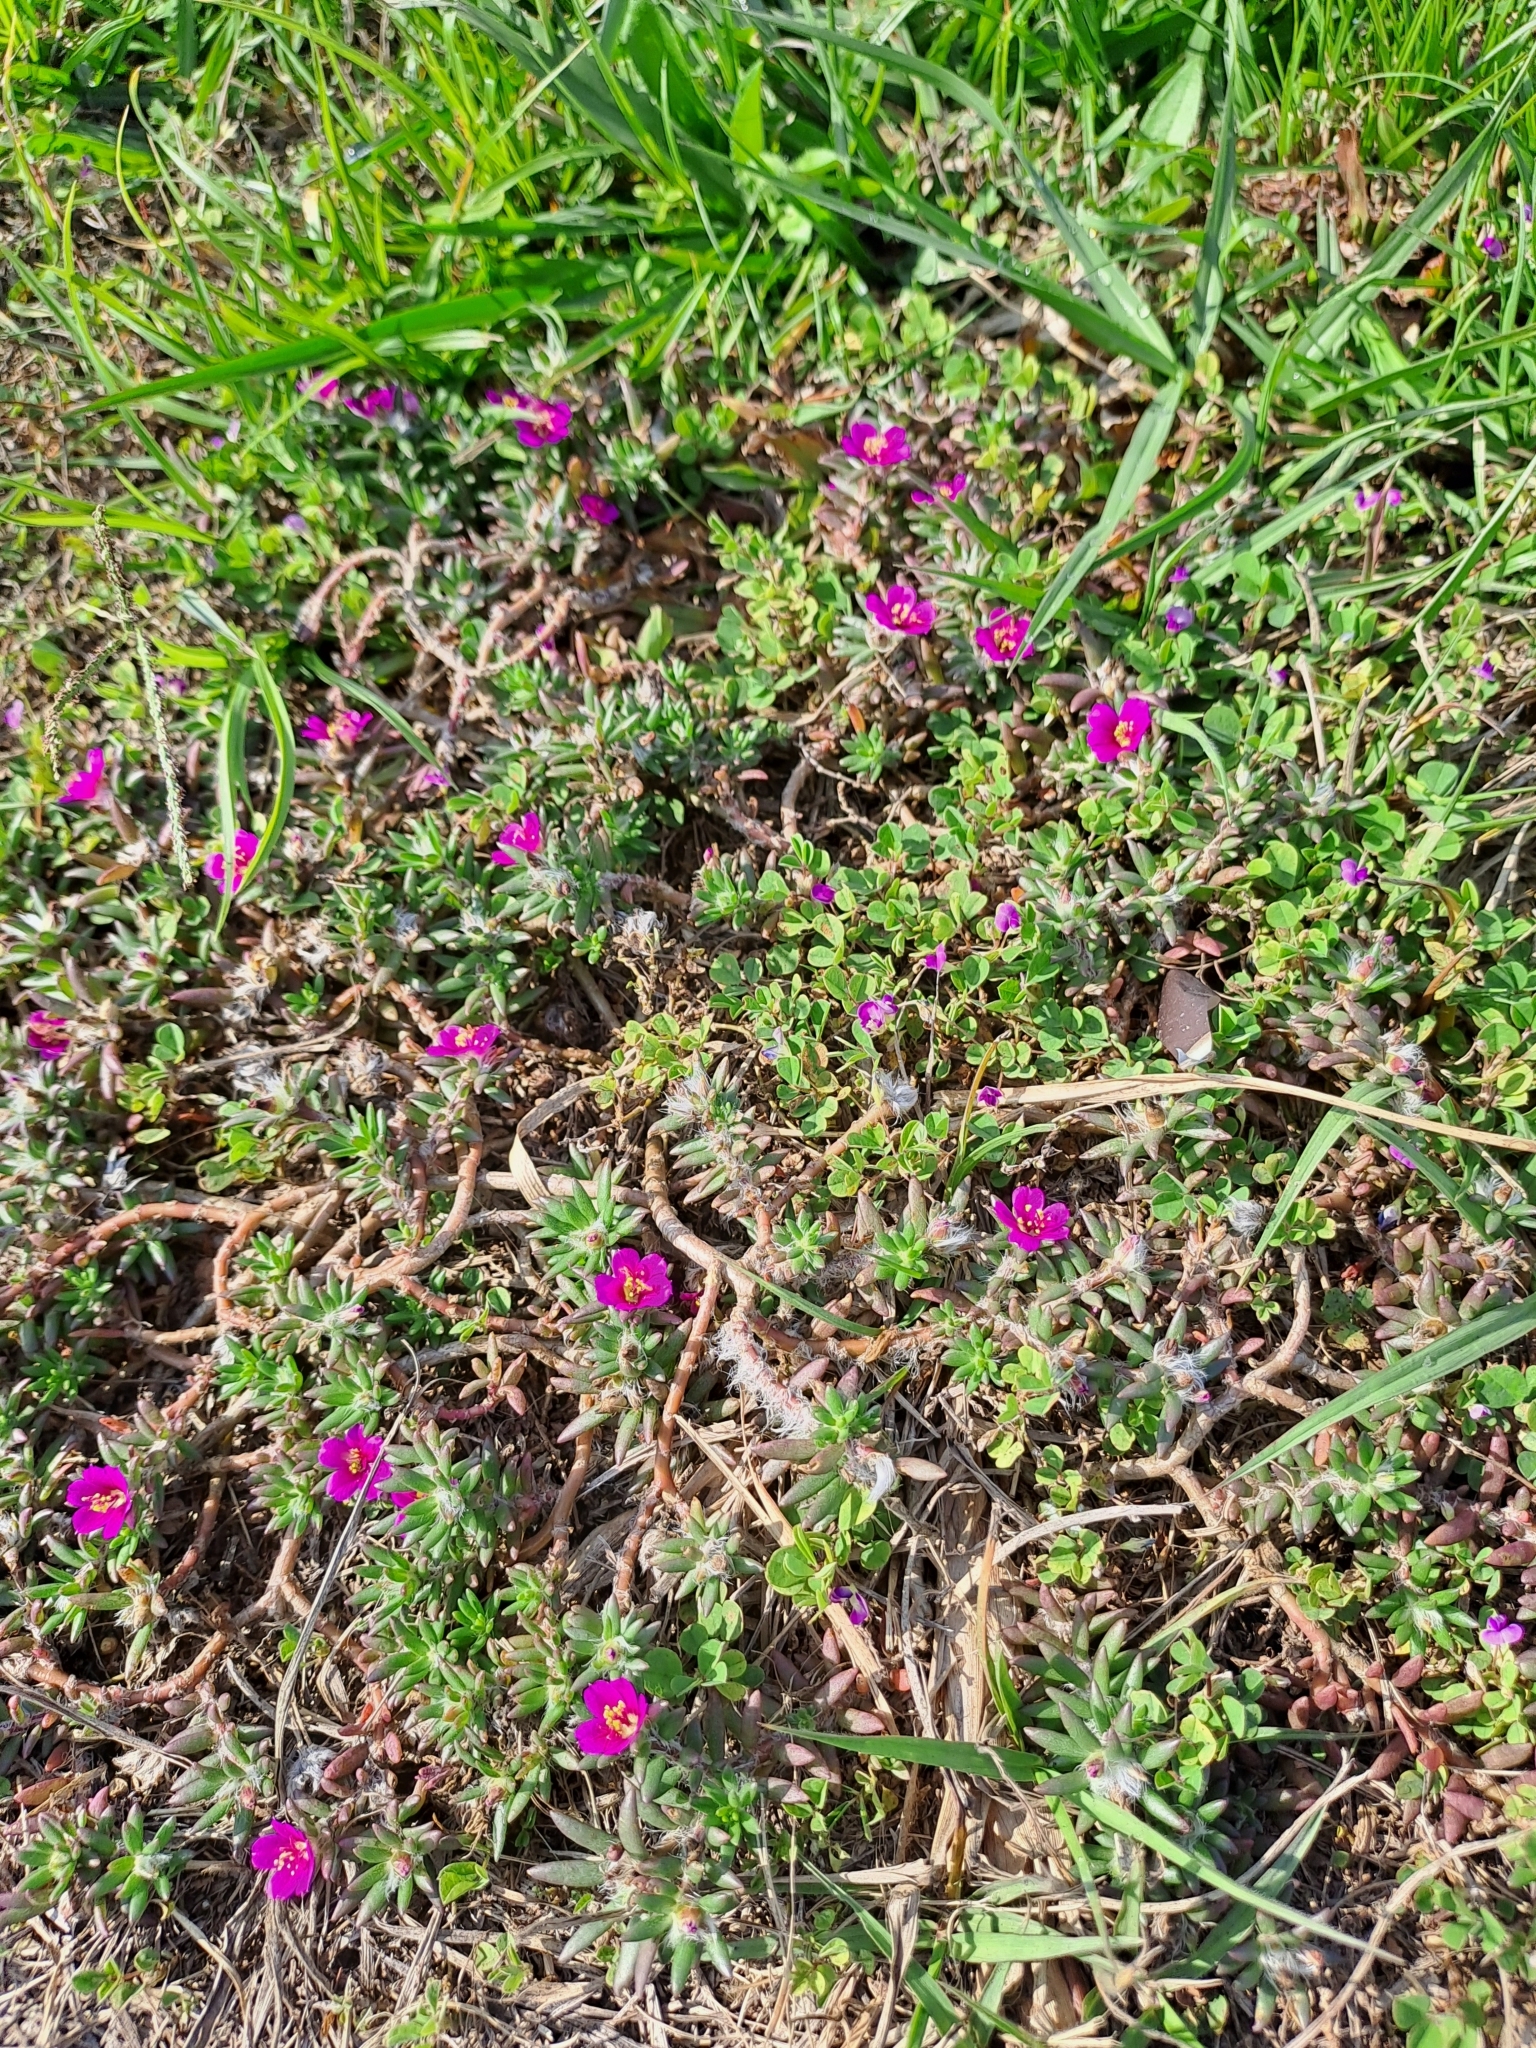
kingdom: Plantae
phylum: Tracheophyta
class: Magnoliopsida
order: Caryophyllales
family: Portulacaceae
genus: Portulaca
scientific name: Portulaca pilosa
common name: Kiss me quick
